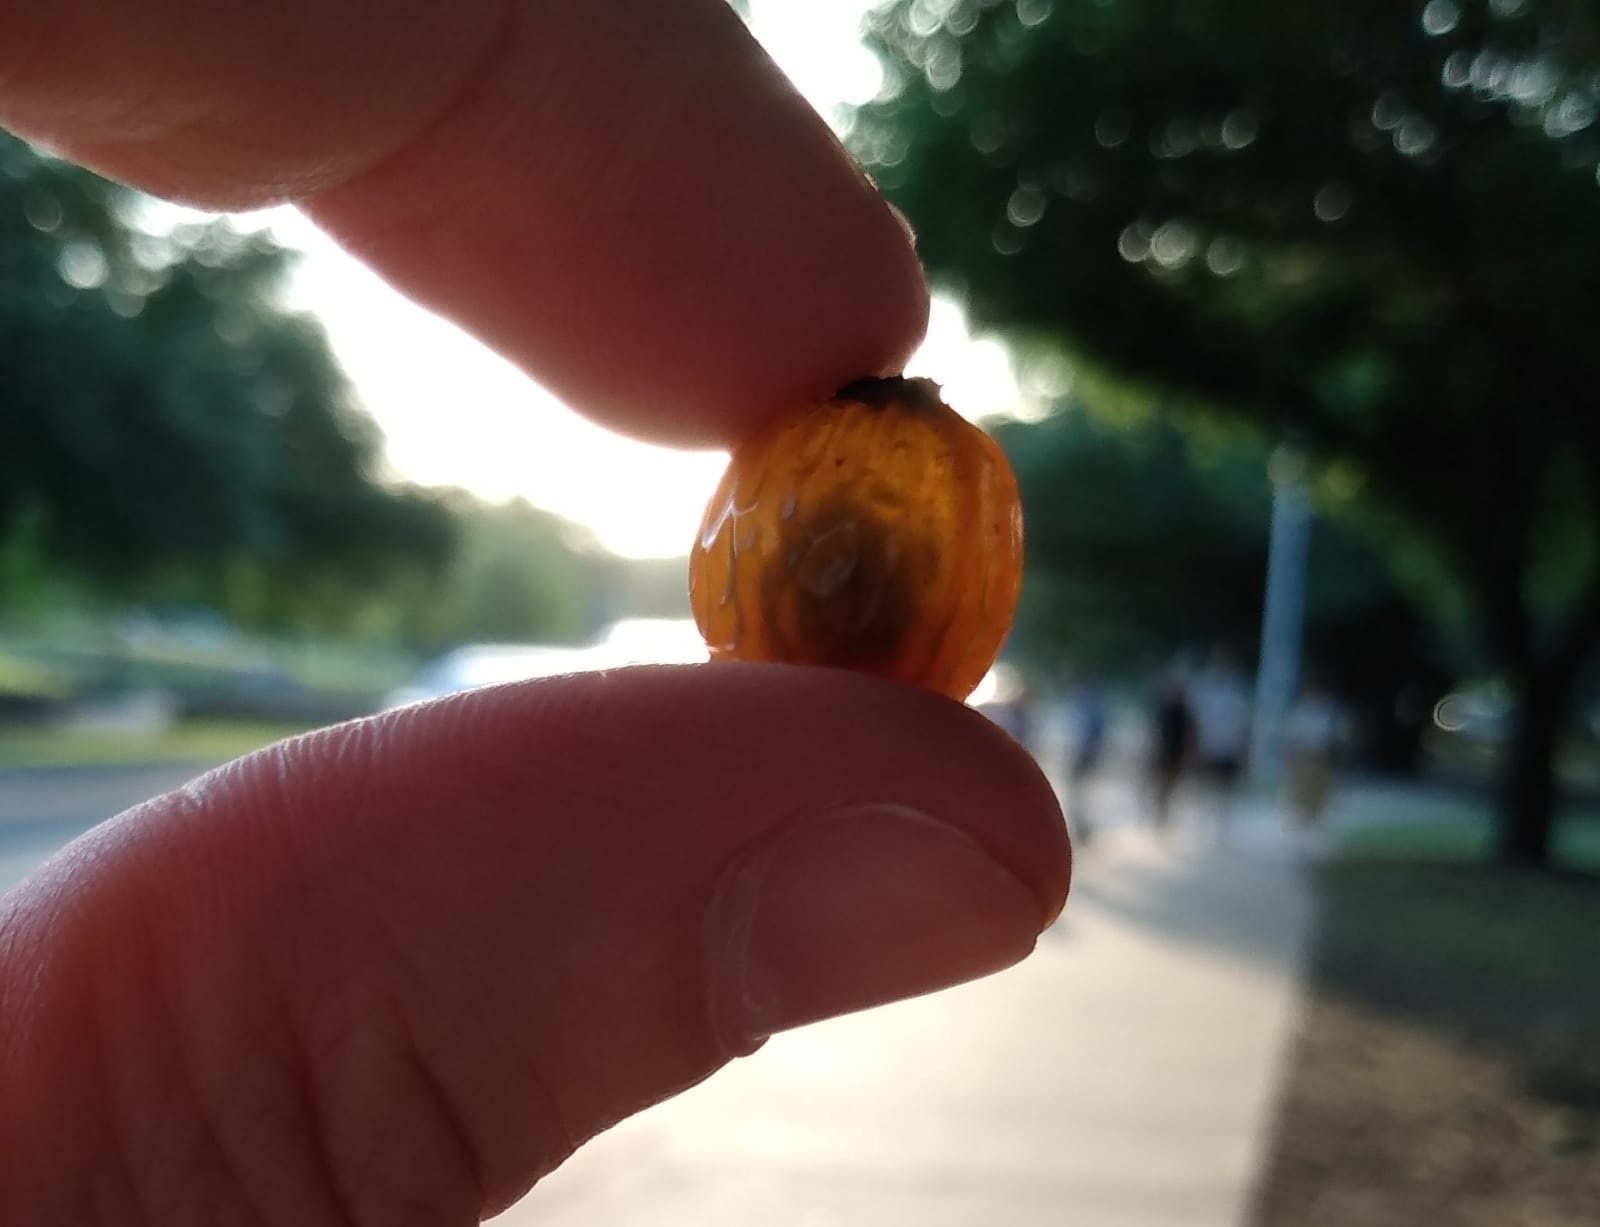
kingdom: Plantae
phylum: Tracheophyta
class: Magnoliopsida
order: Sapindales
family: Sapindaceae
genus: Sapindus
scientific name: Sapindus drummondii
